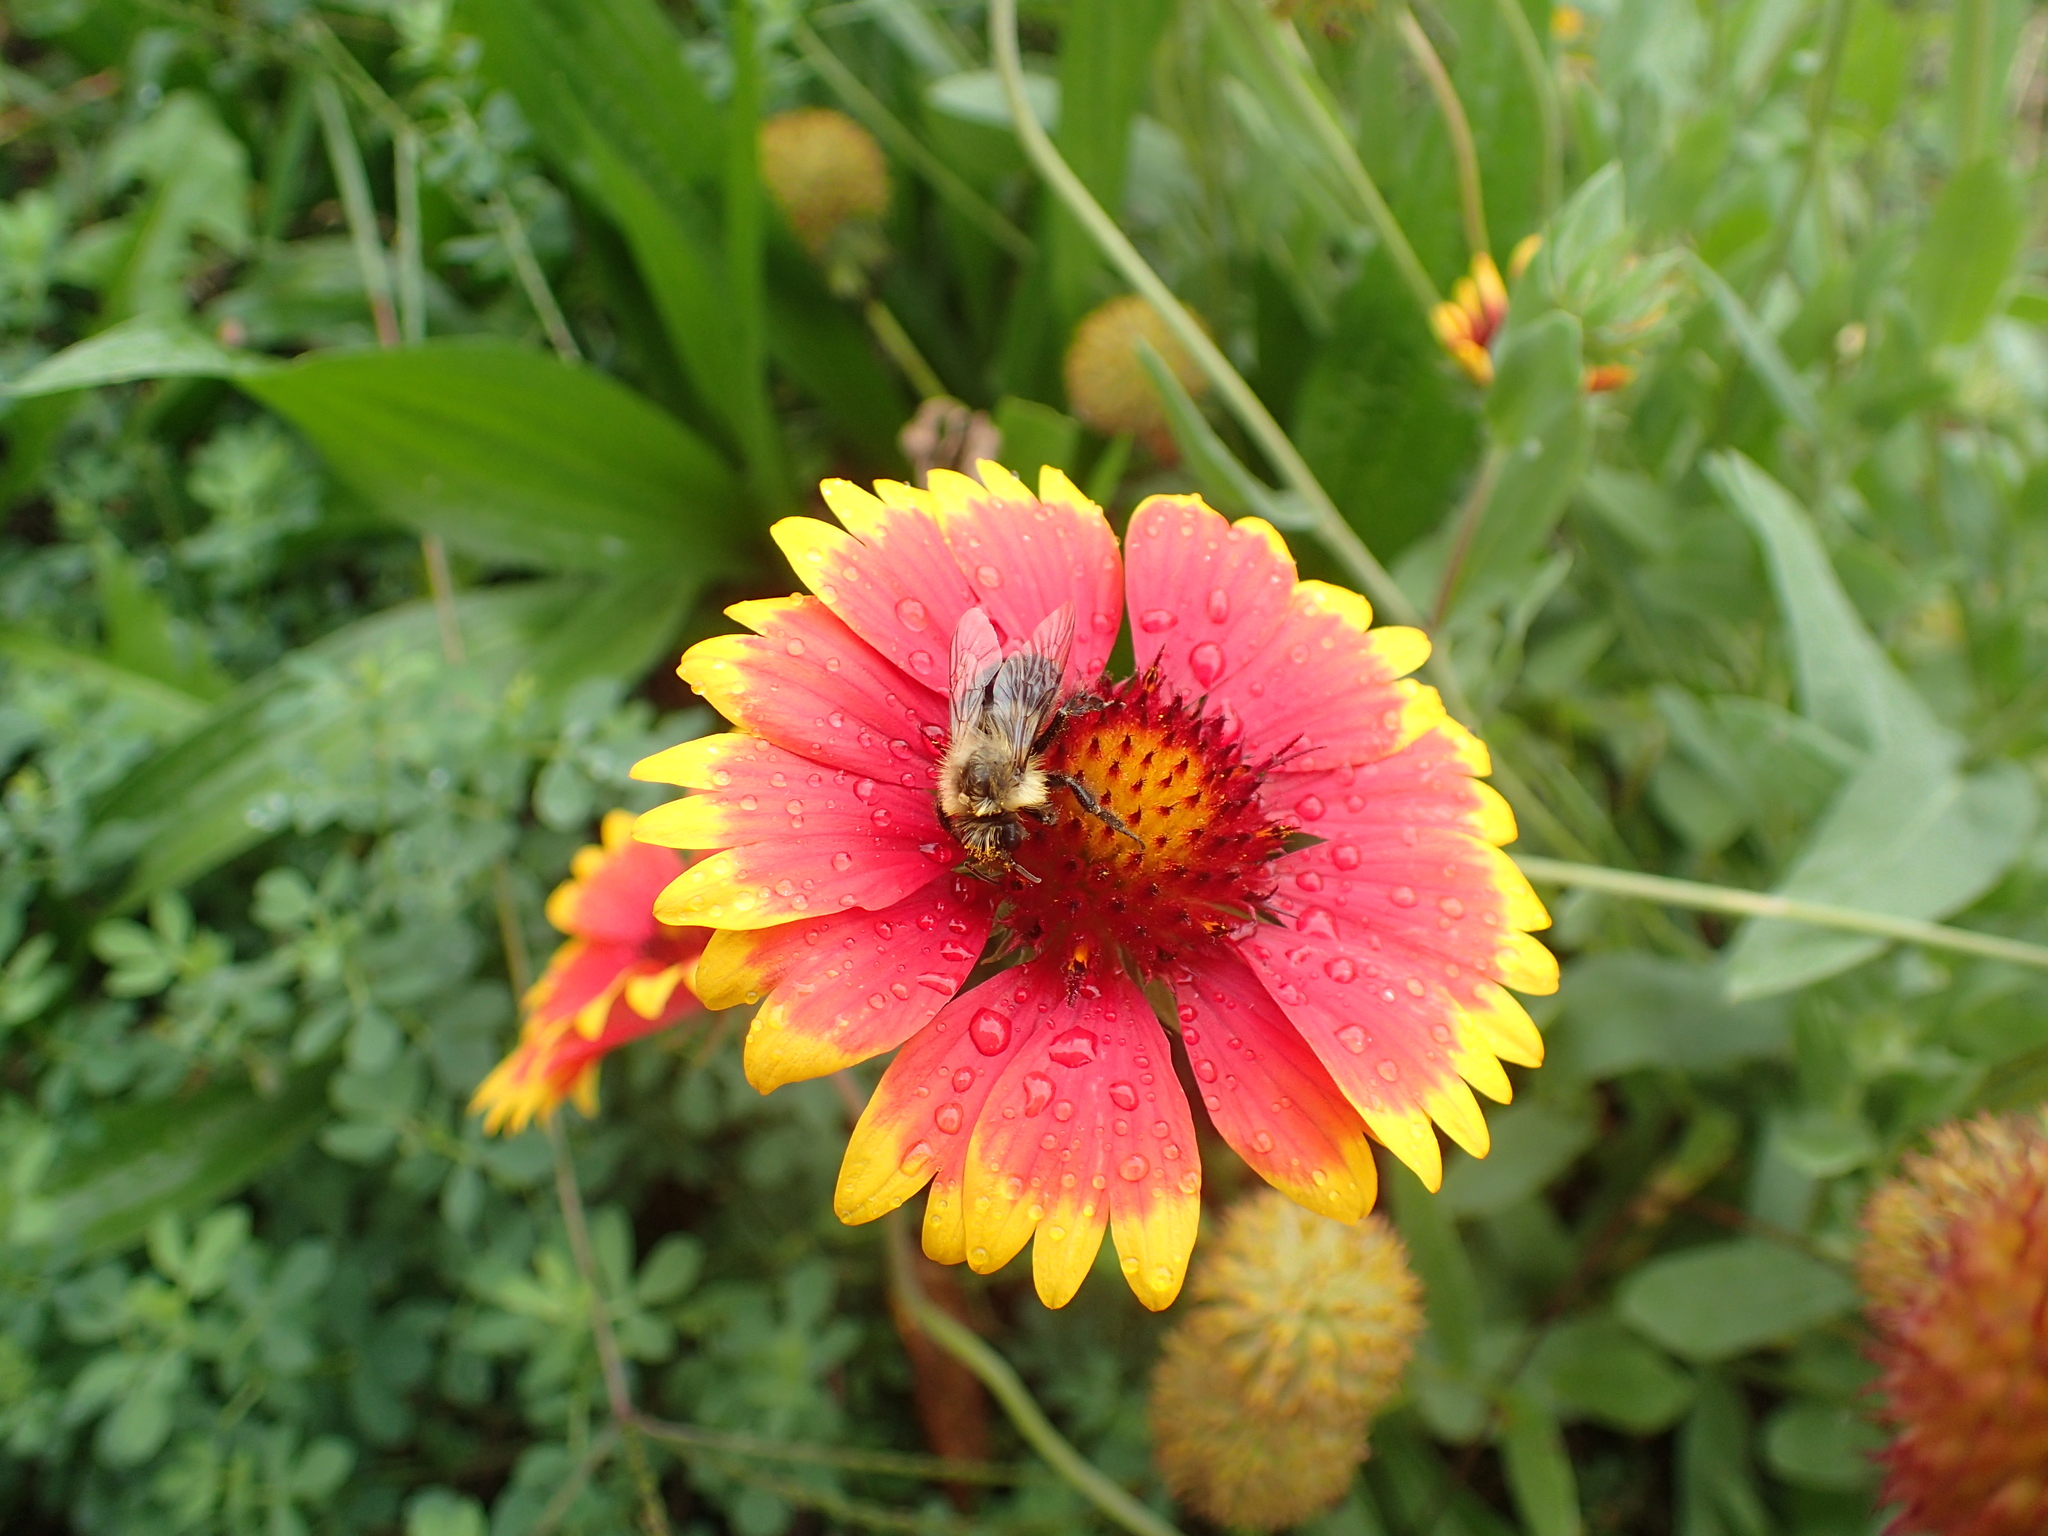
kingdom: Animalia
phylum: Arthropoda
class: Insecta
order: Hymenoptera
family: Apidae
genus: Bombus
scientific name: Bombus impatiens
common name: Common eastern bumble bee
